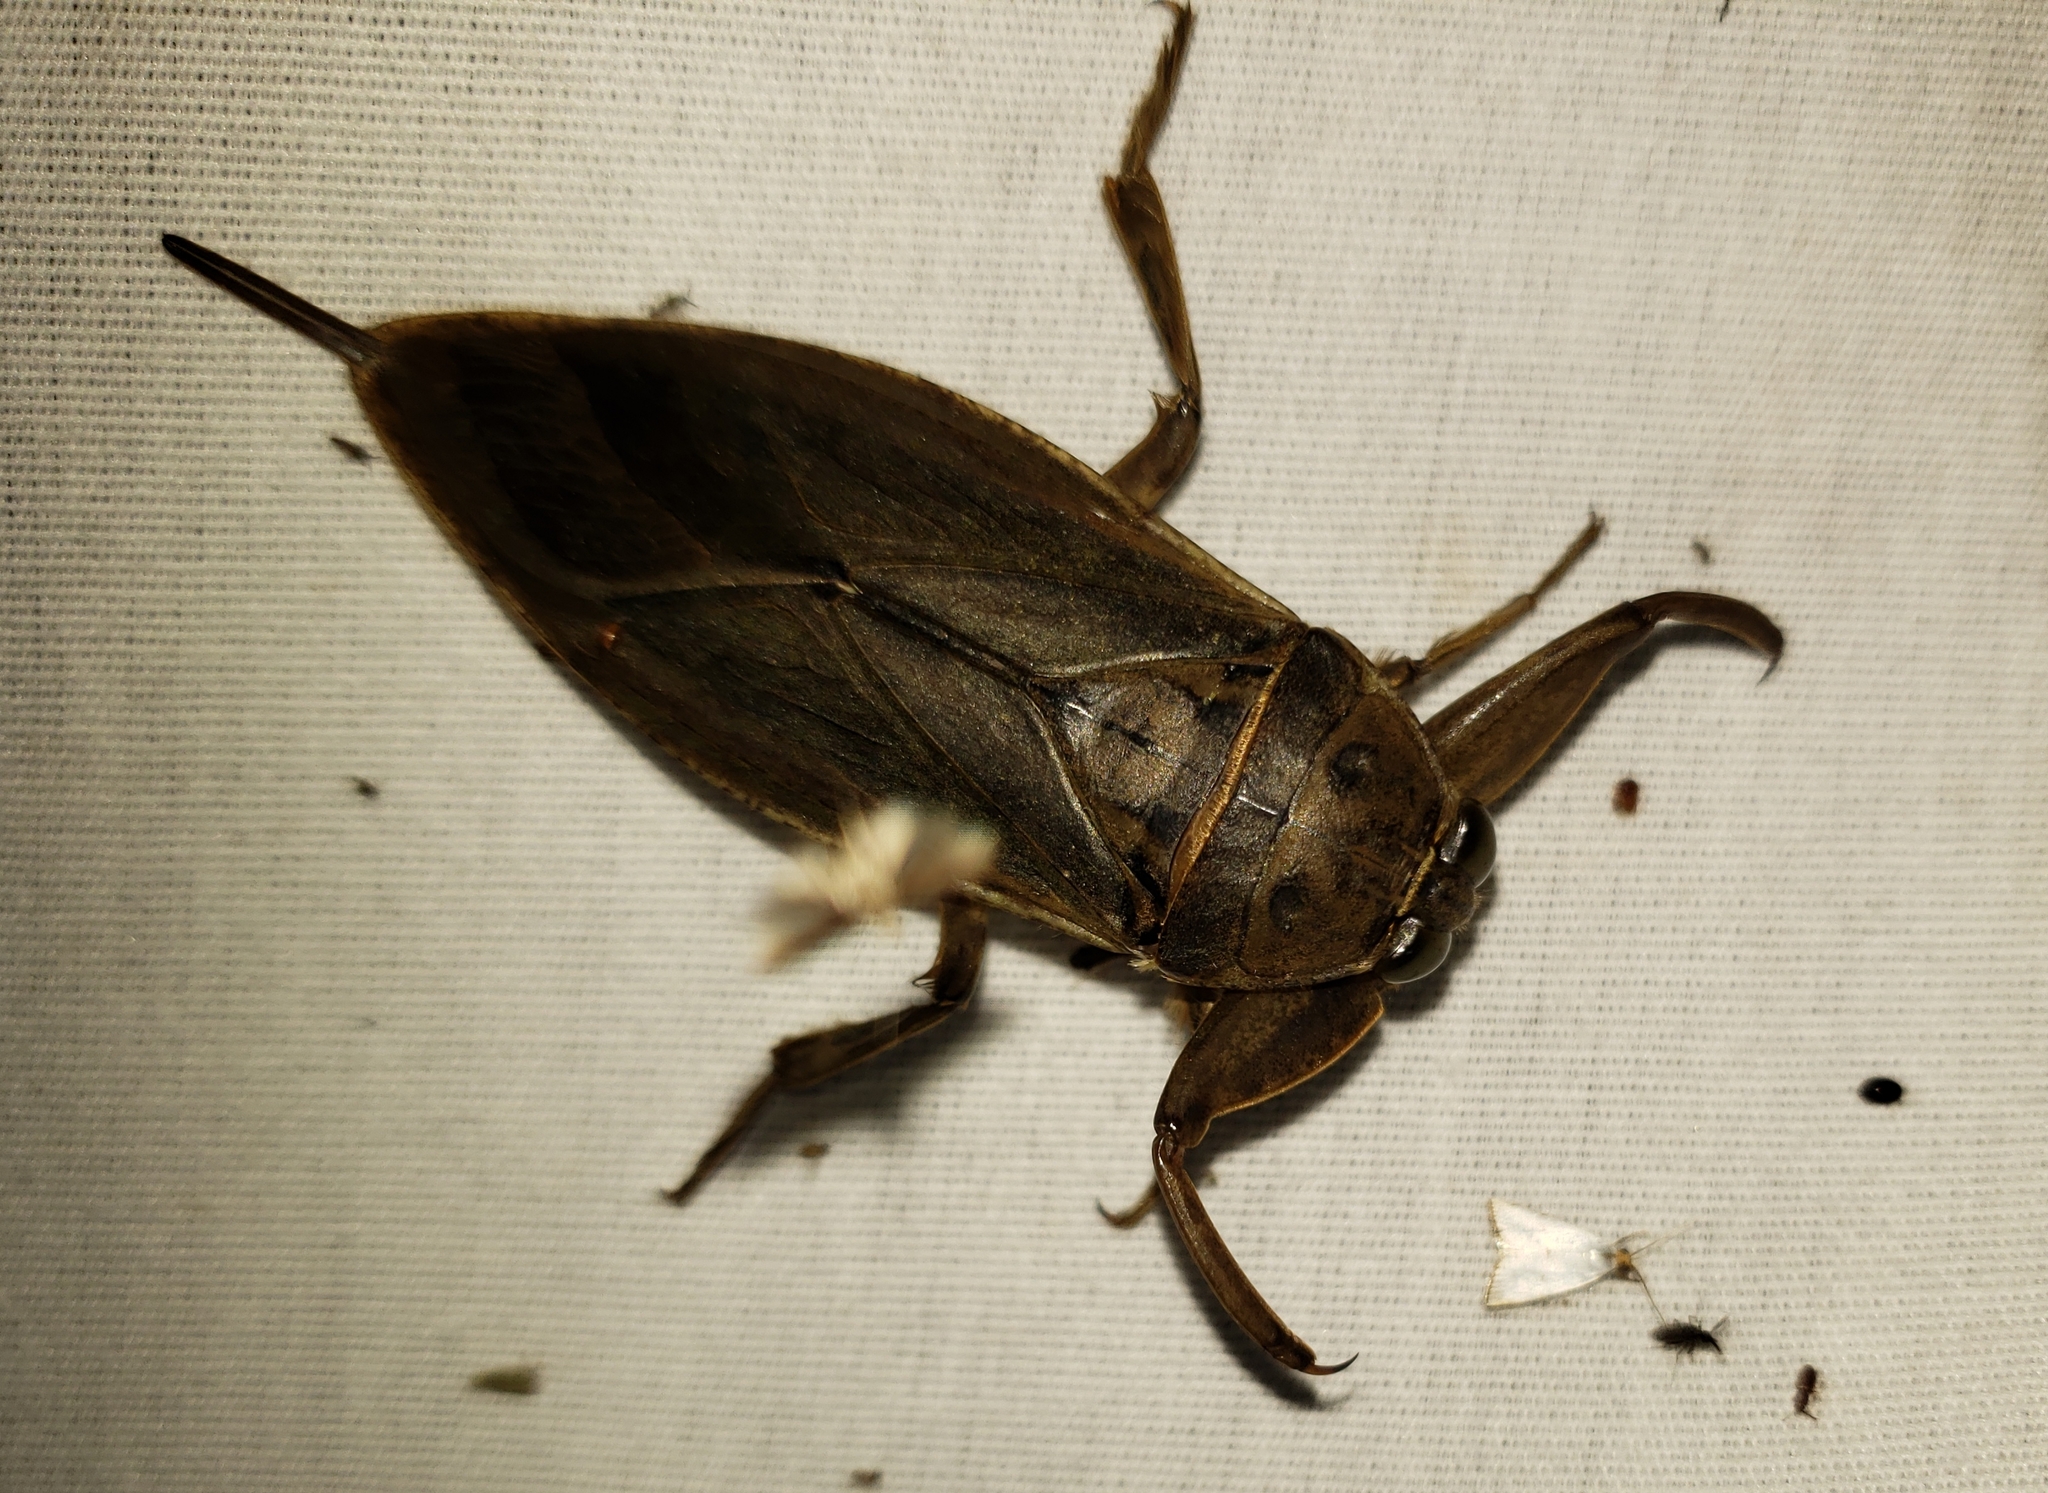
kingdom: Animalia
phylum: Arthropoda
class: Insecta
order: Hemiptera
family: Belostomatidae
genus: Lethocerus
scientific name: Lethocerus uhleri
